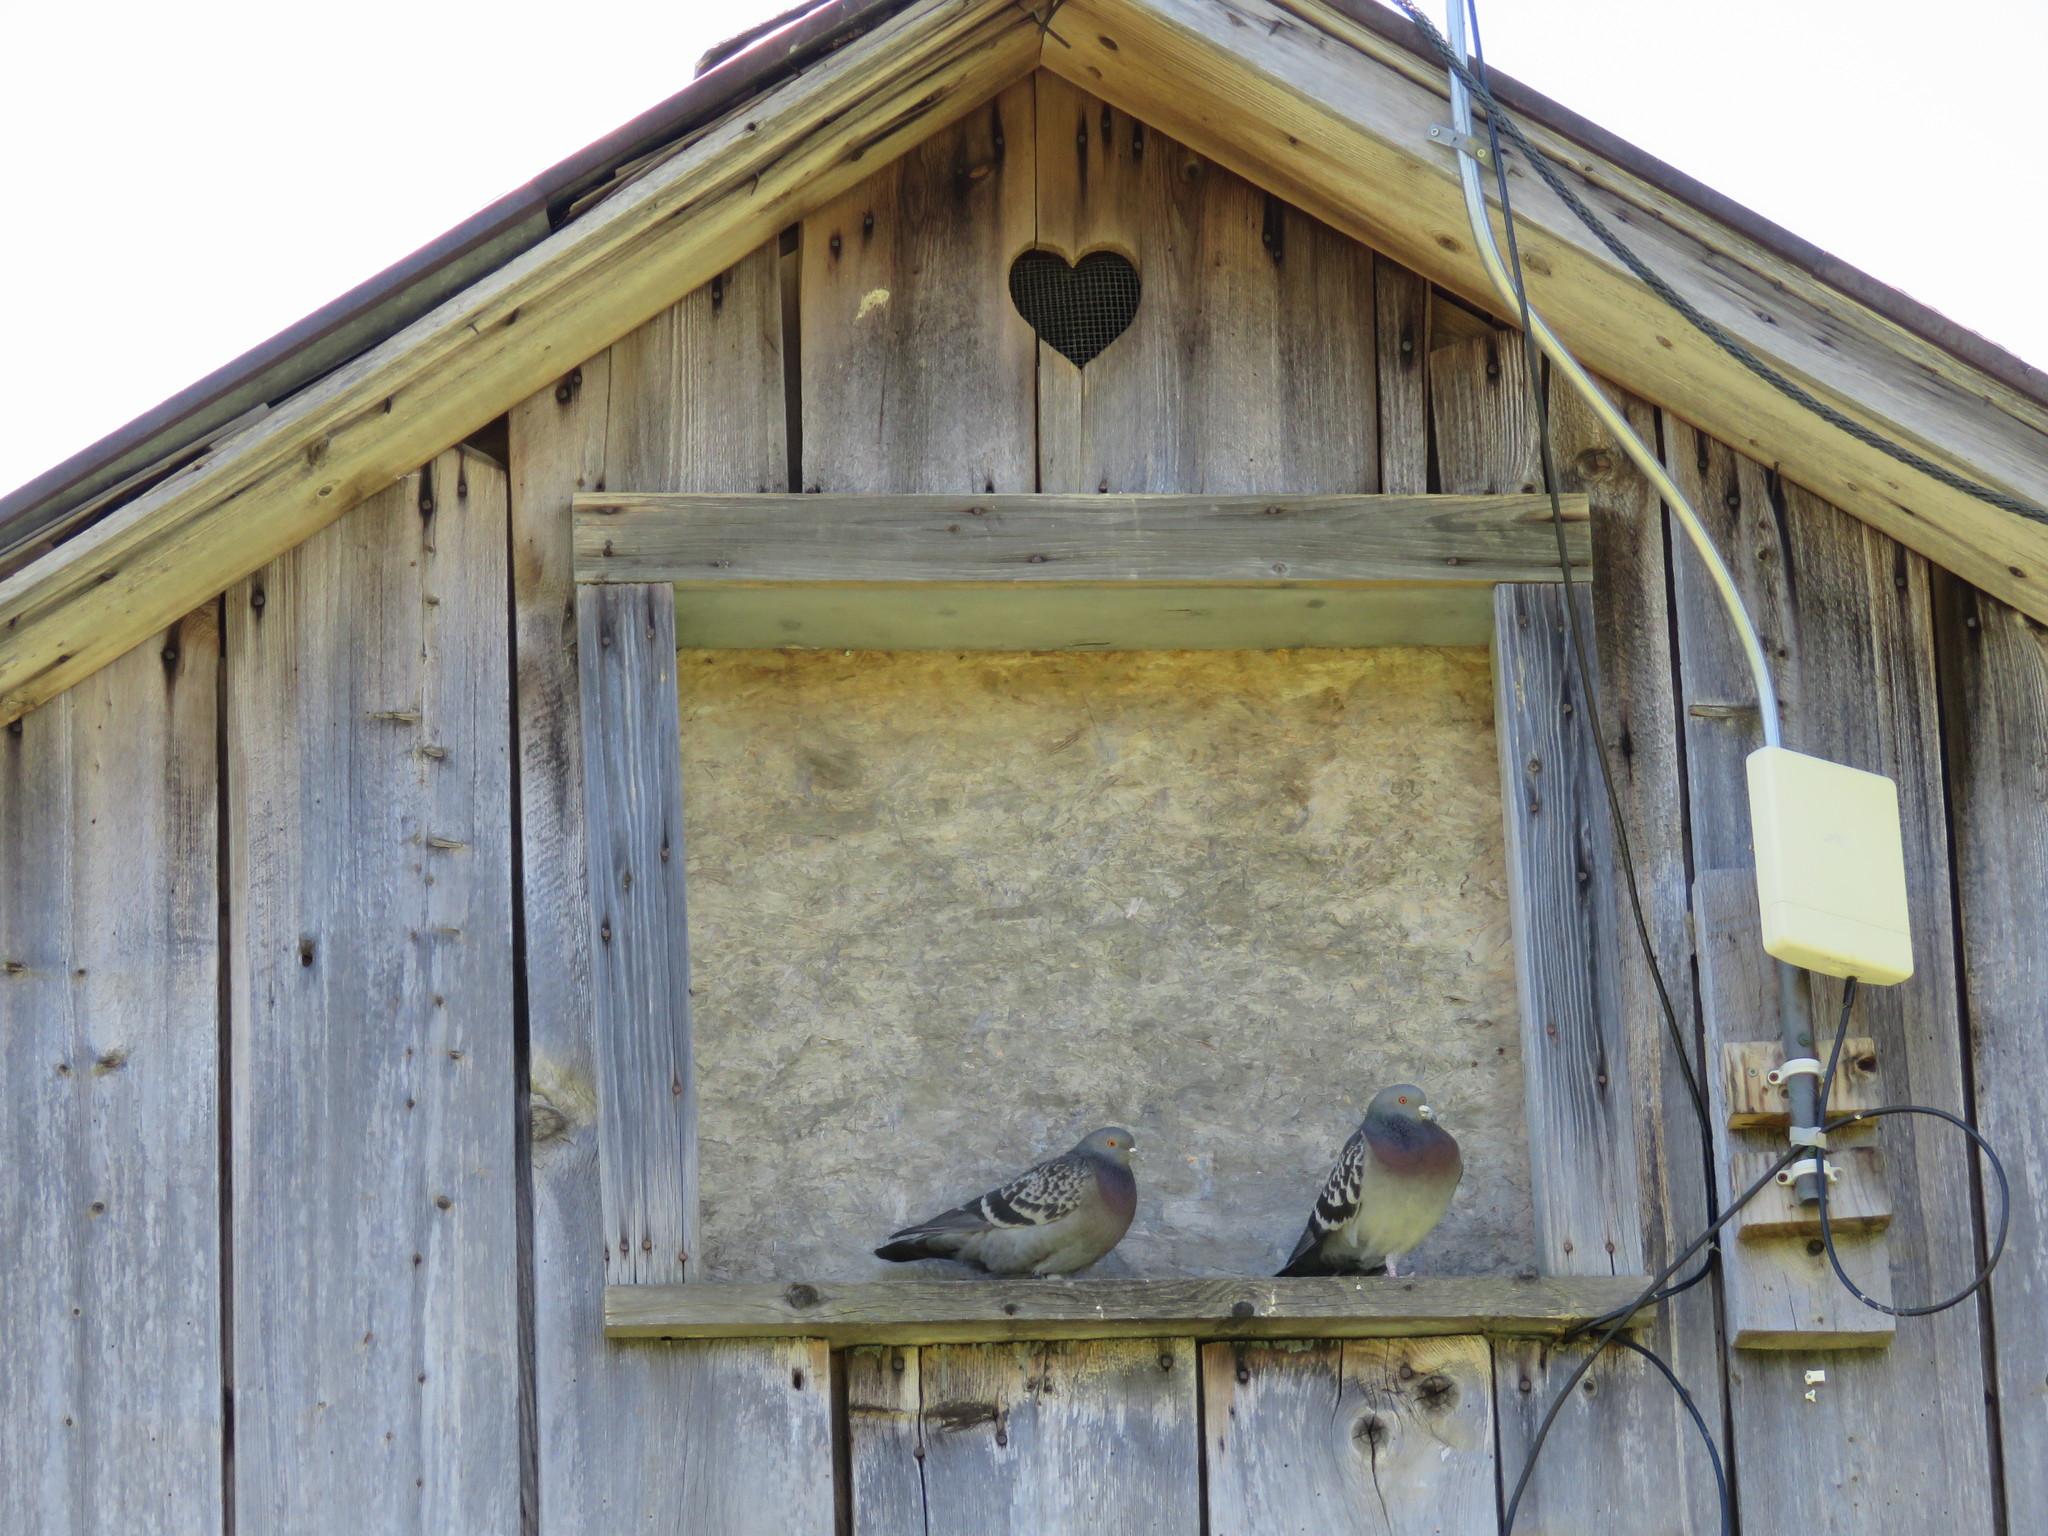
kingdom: Animalia
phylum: Chordata
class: Aves
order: Columbiformes
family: Columbidae
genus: Columba
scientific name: Columba livia
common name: Rock pigeon
